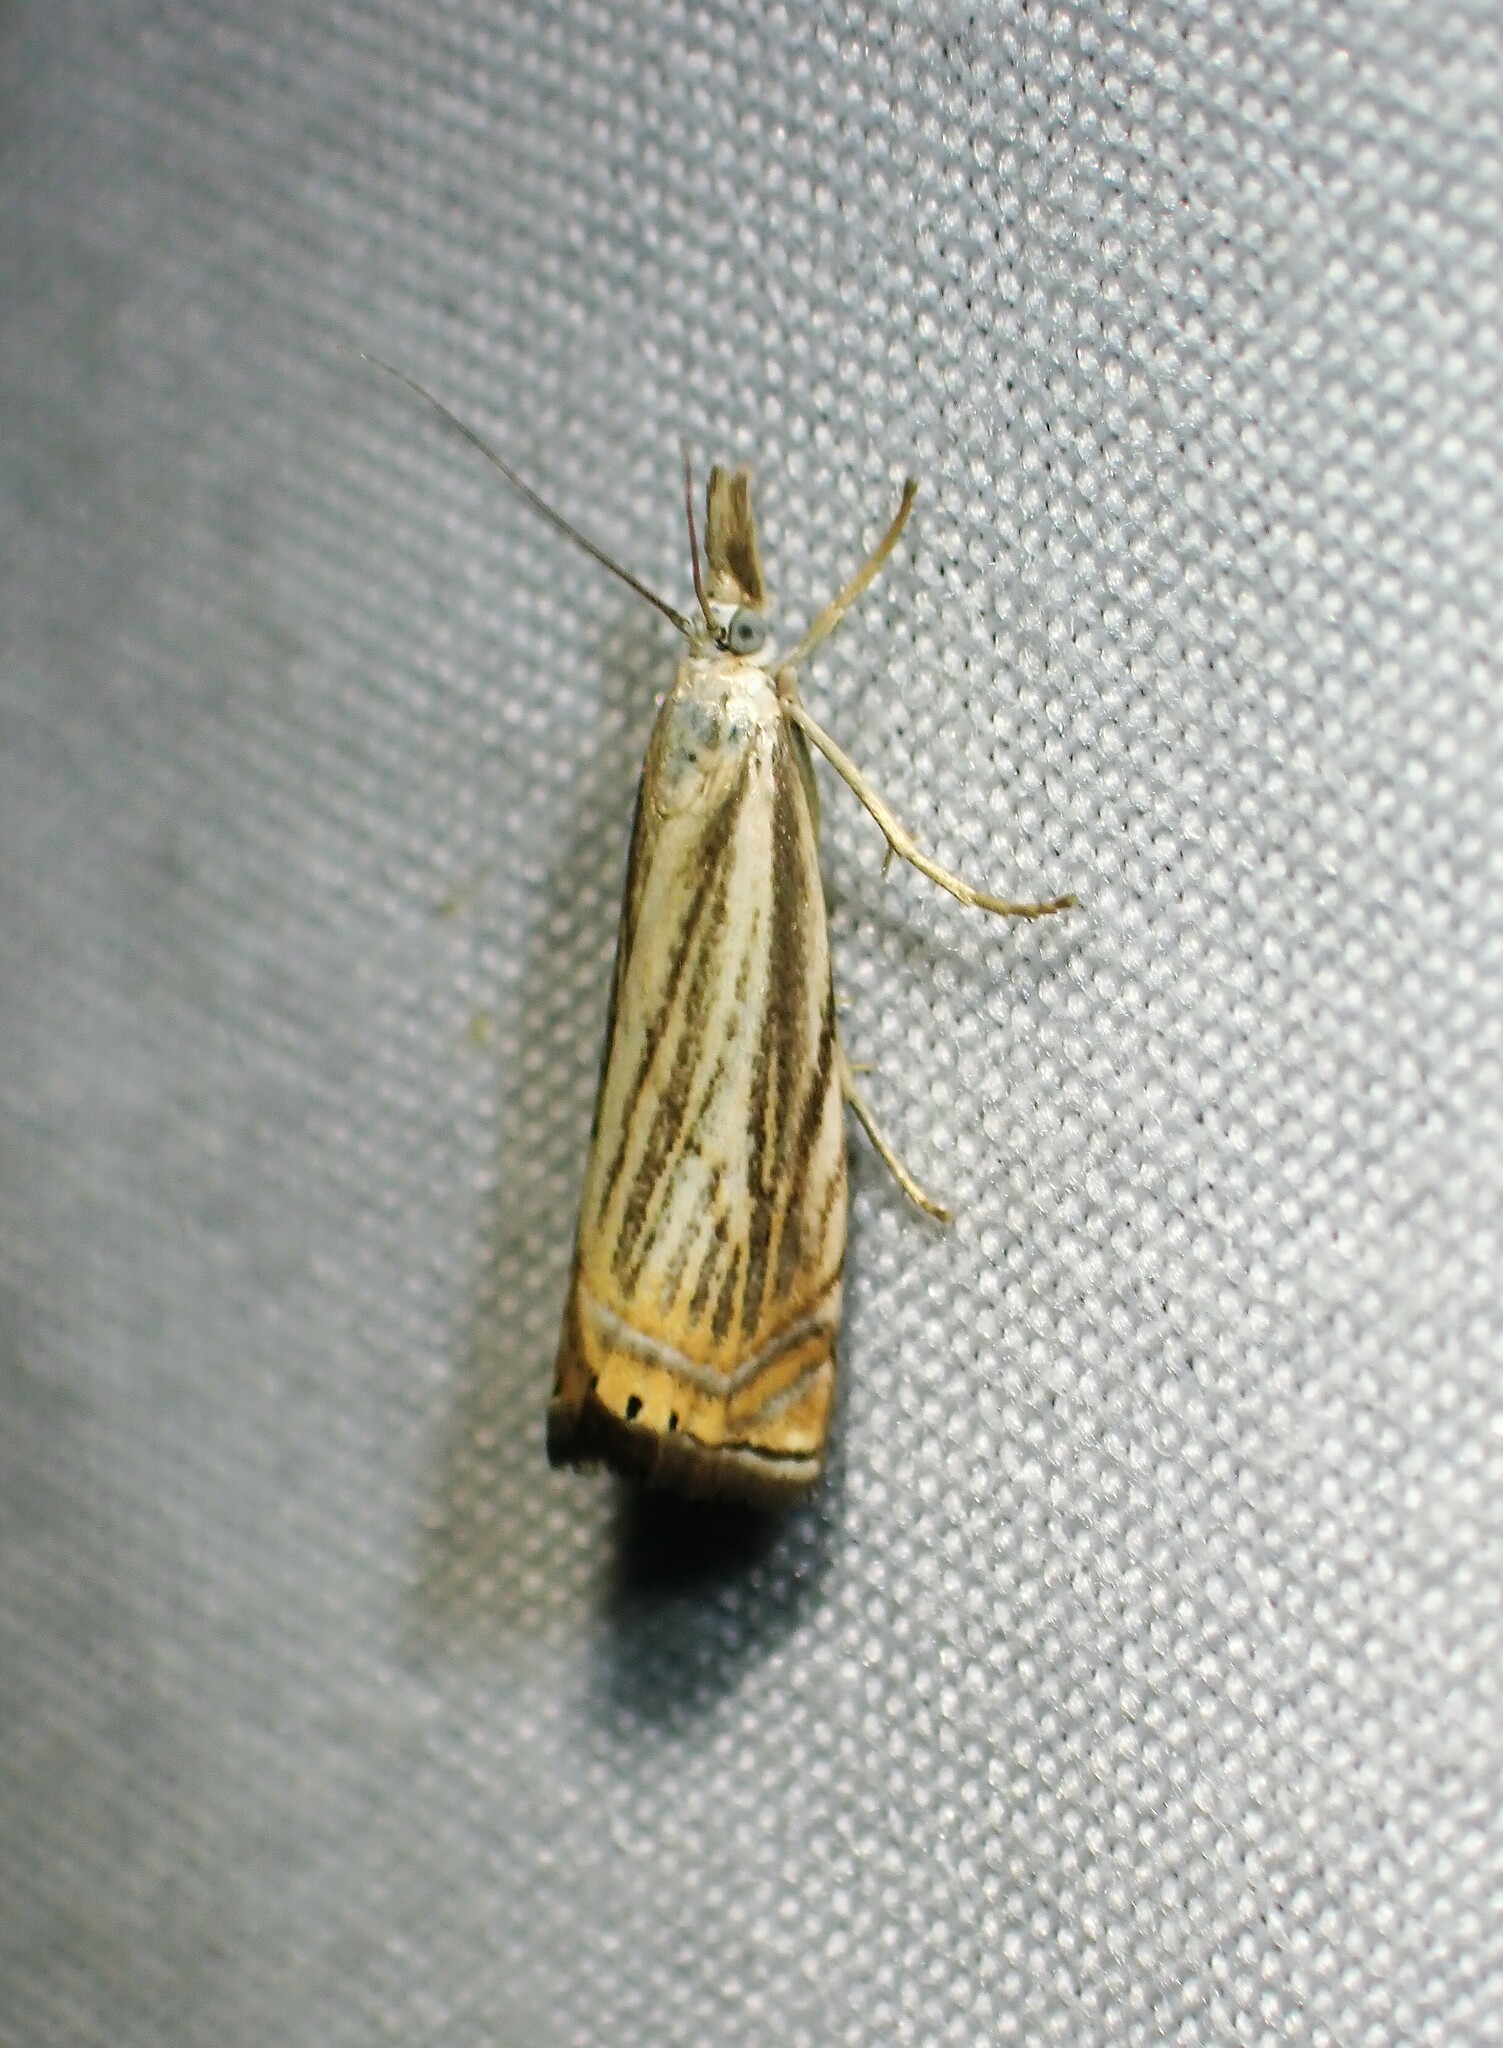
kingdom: Animalia
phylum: Arthropoda
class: Insecta
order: Lepidoptera
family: Crambidae
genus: Chrysoteuchia
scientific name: Chrysoteuchia topiarius
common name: Topiary grass-veneer
